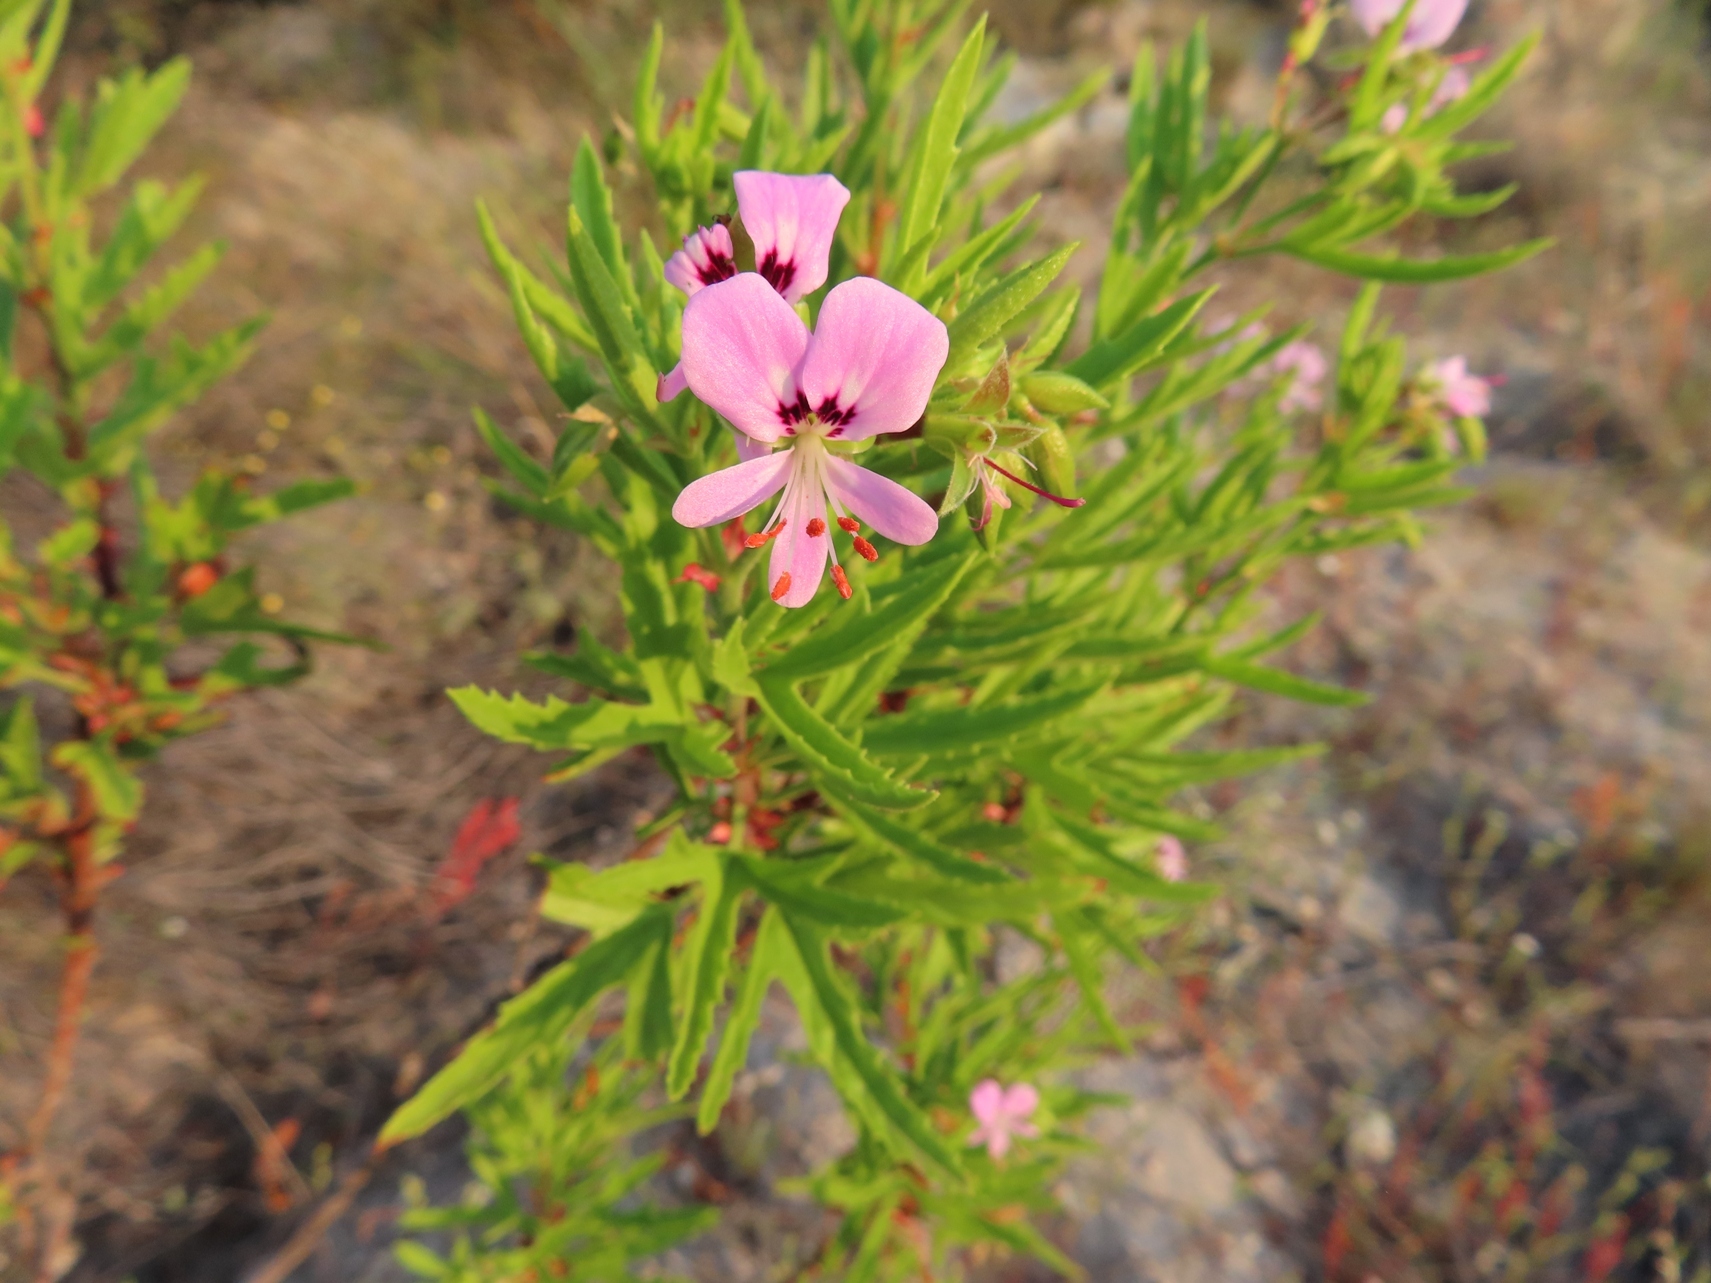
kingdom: Plantae
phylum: Tracheophyta
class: Magnoliopsida
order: Geraniales
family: Geraniaceae
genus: Pelargonium
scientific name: Pelargonium scabrum
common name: Apricot geranium
